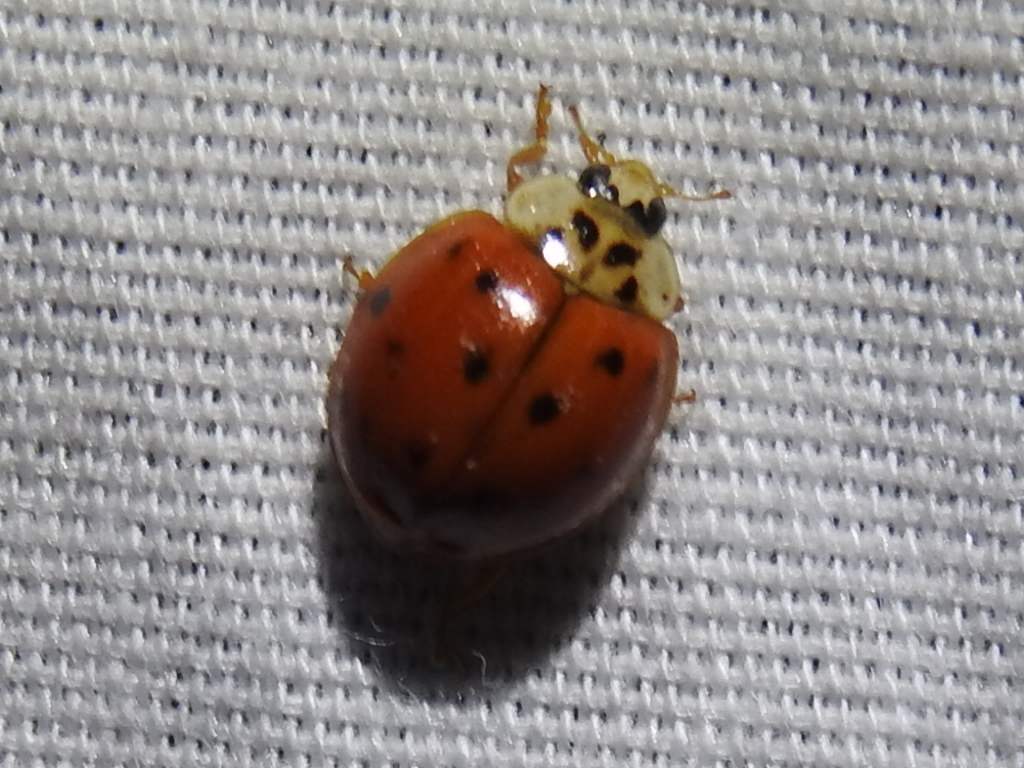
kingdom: Animalia
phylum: Arthropoda
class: Insecta
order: Coleoptera
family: Coccinellidae
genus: Harmonia
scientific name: Harmonia axyridis
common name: Harlequin ladybird
